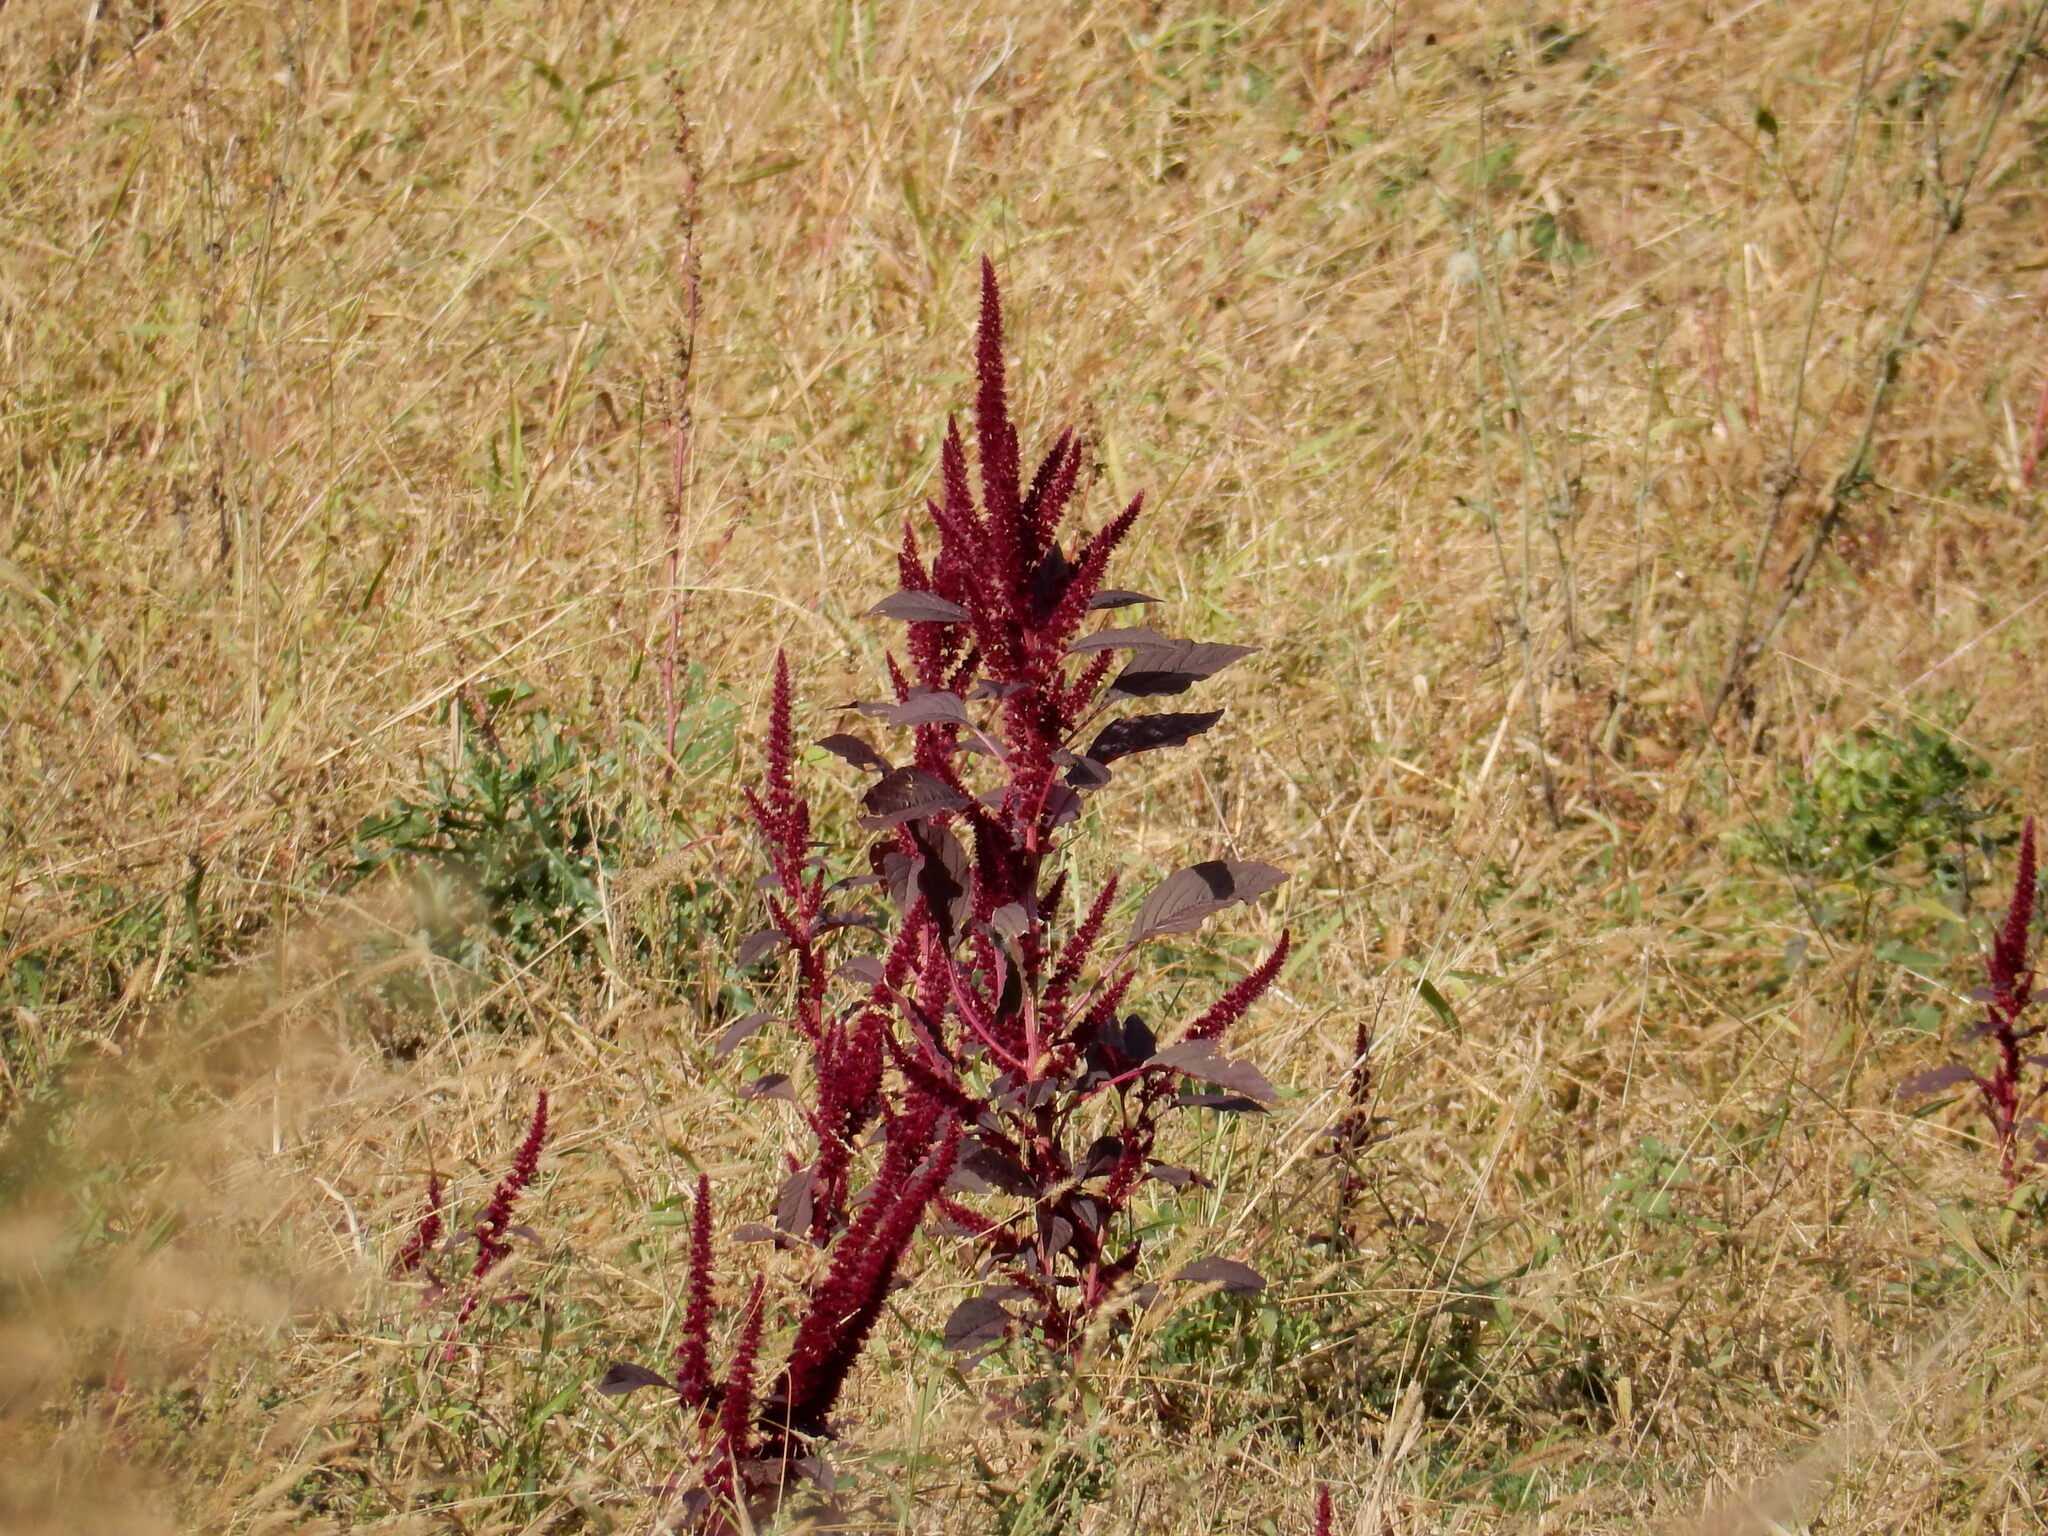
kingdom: Plantae
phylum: Tracheophyta
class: Magnoliopsida
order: Caryophyllales
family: Amaranthaceae
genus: Amaranthus
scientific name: Amaranthus cruentus
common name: Purple amaranth
